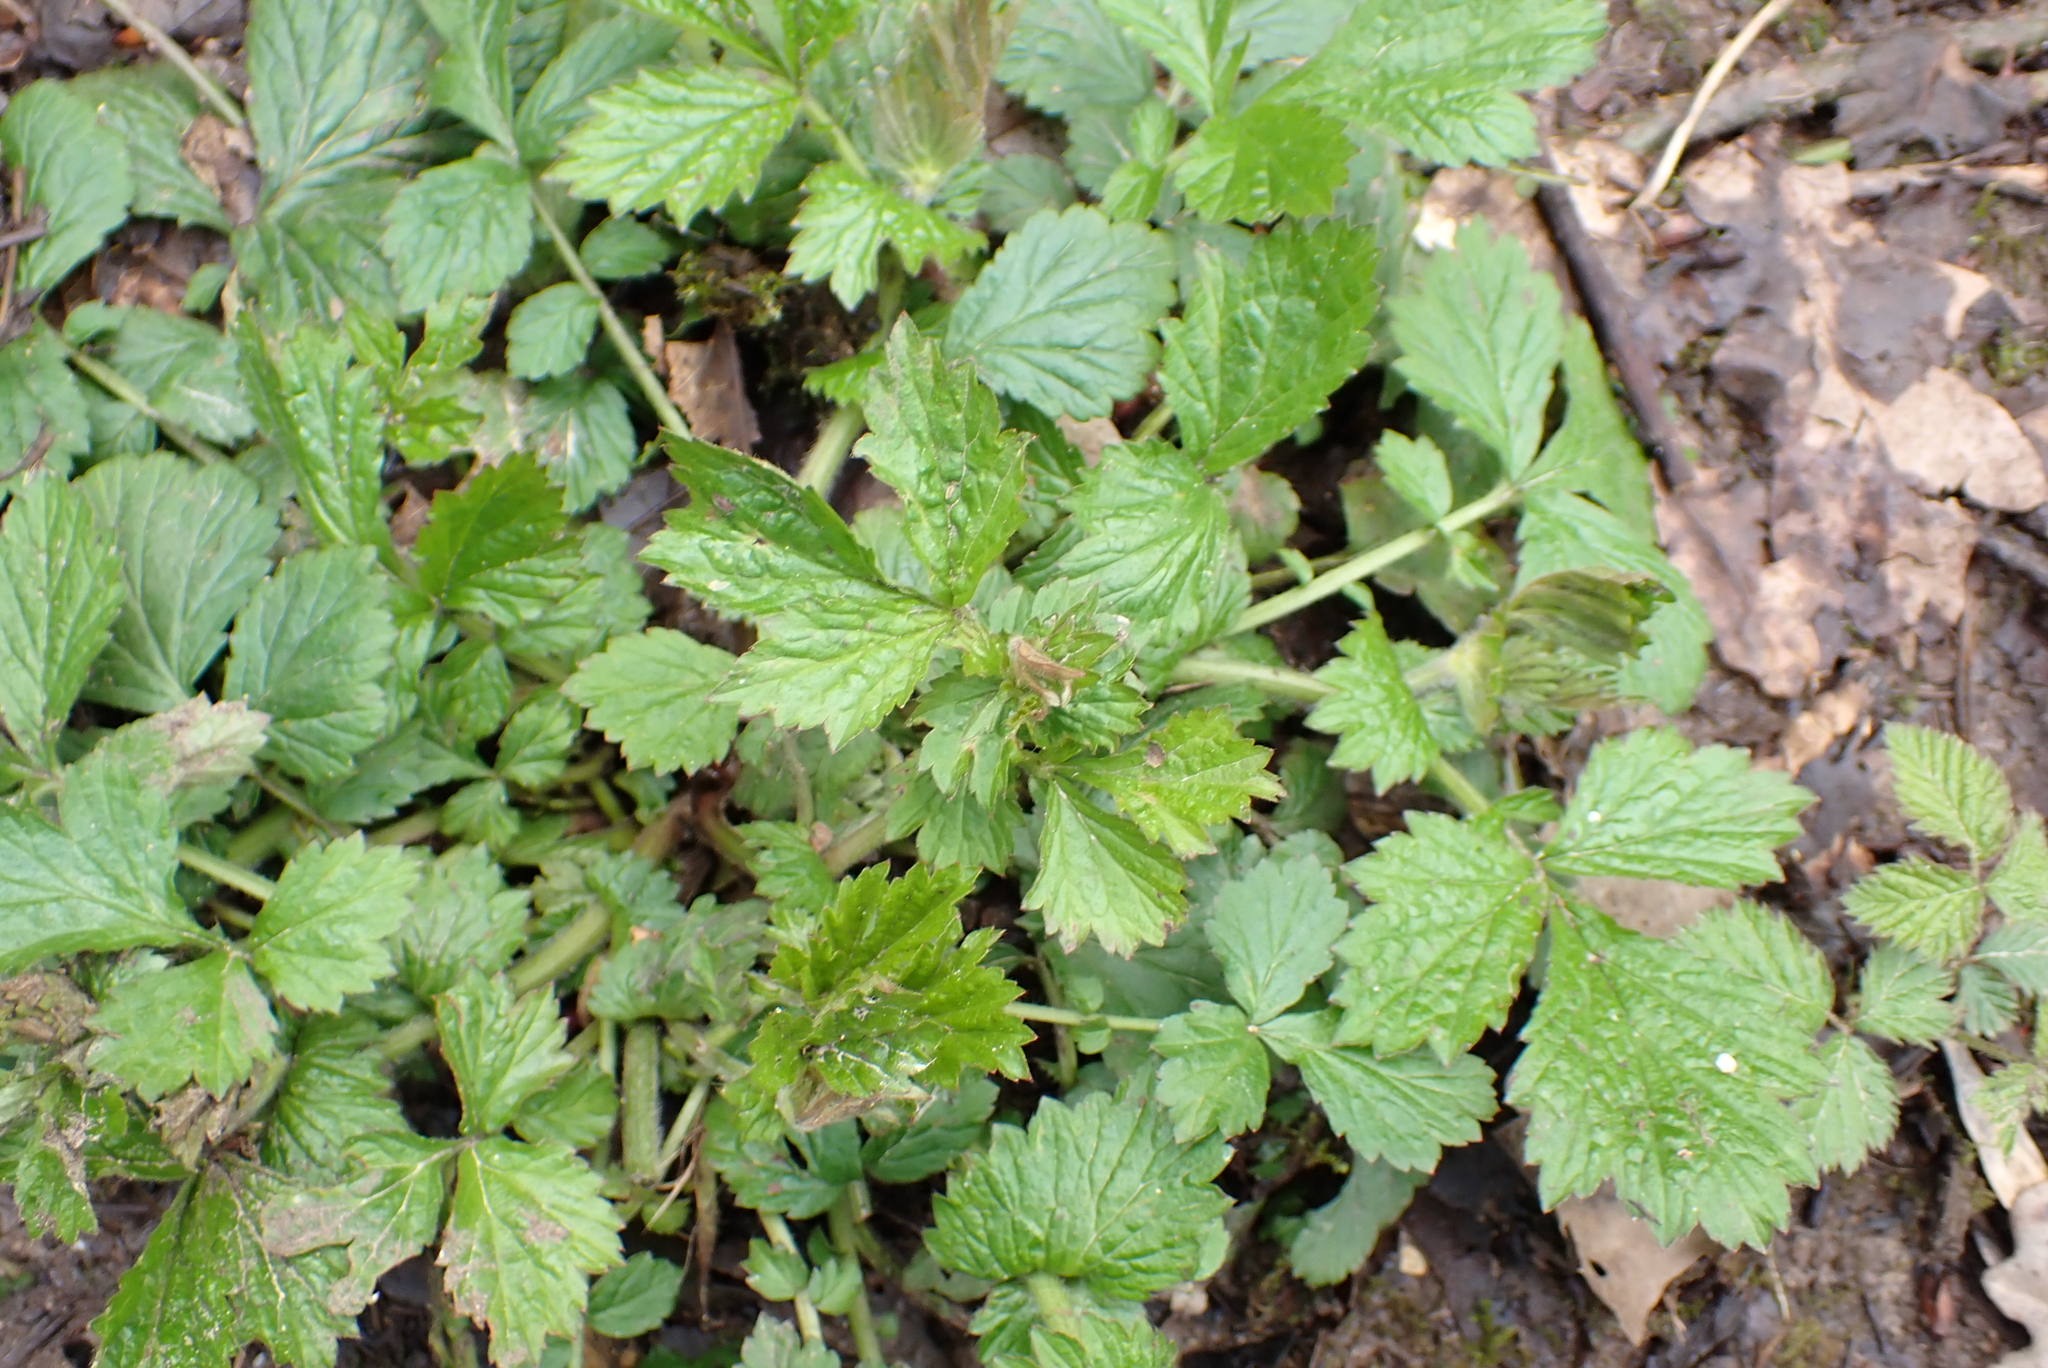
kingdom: Plantae
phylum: Tracheophyta
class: Magnoliopsida
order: Rosales
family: Rosaceae
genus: Geum
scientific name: Geum urbanum
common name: Wood avens
